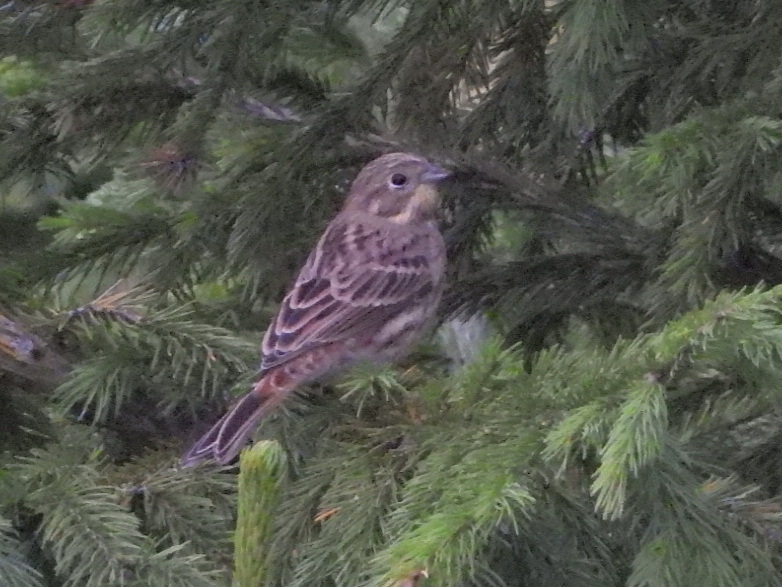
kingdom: Animalia
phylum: Chordata
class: Aves
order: Passeriformes
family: Emberizidae
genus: Emberiza
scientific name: Emberiza citrinella
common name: Yellowhammer
